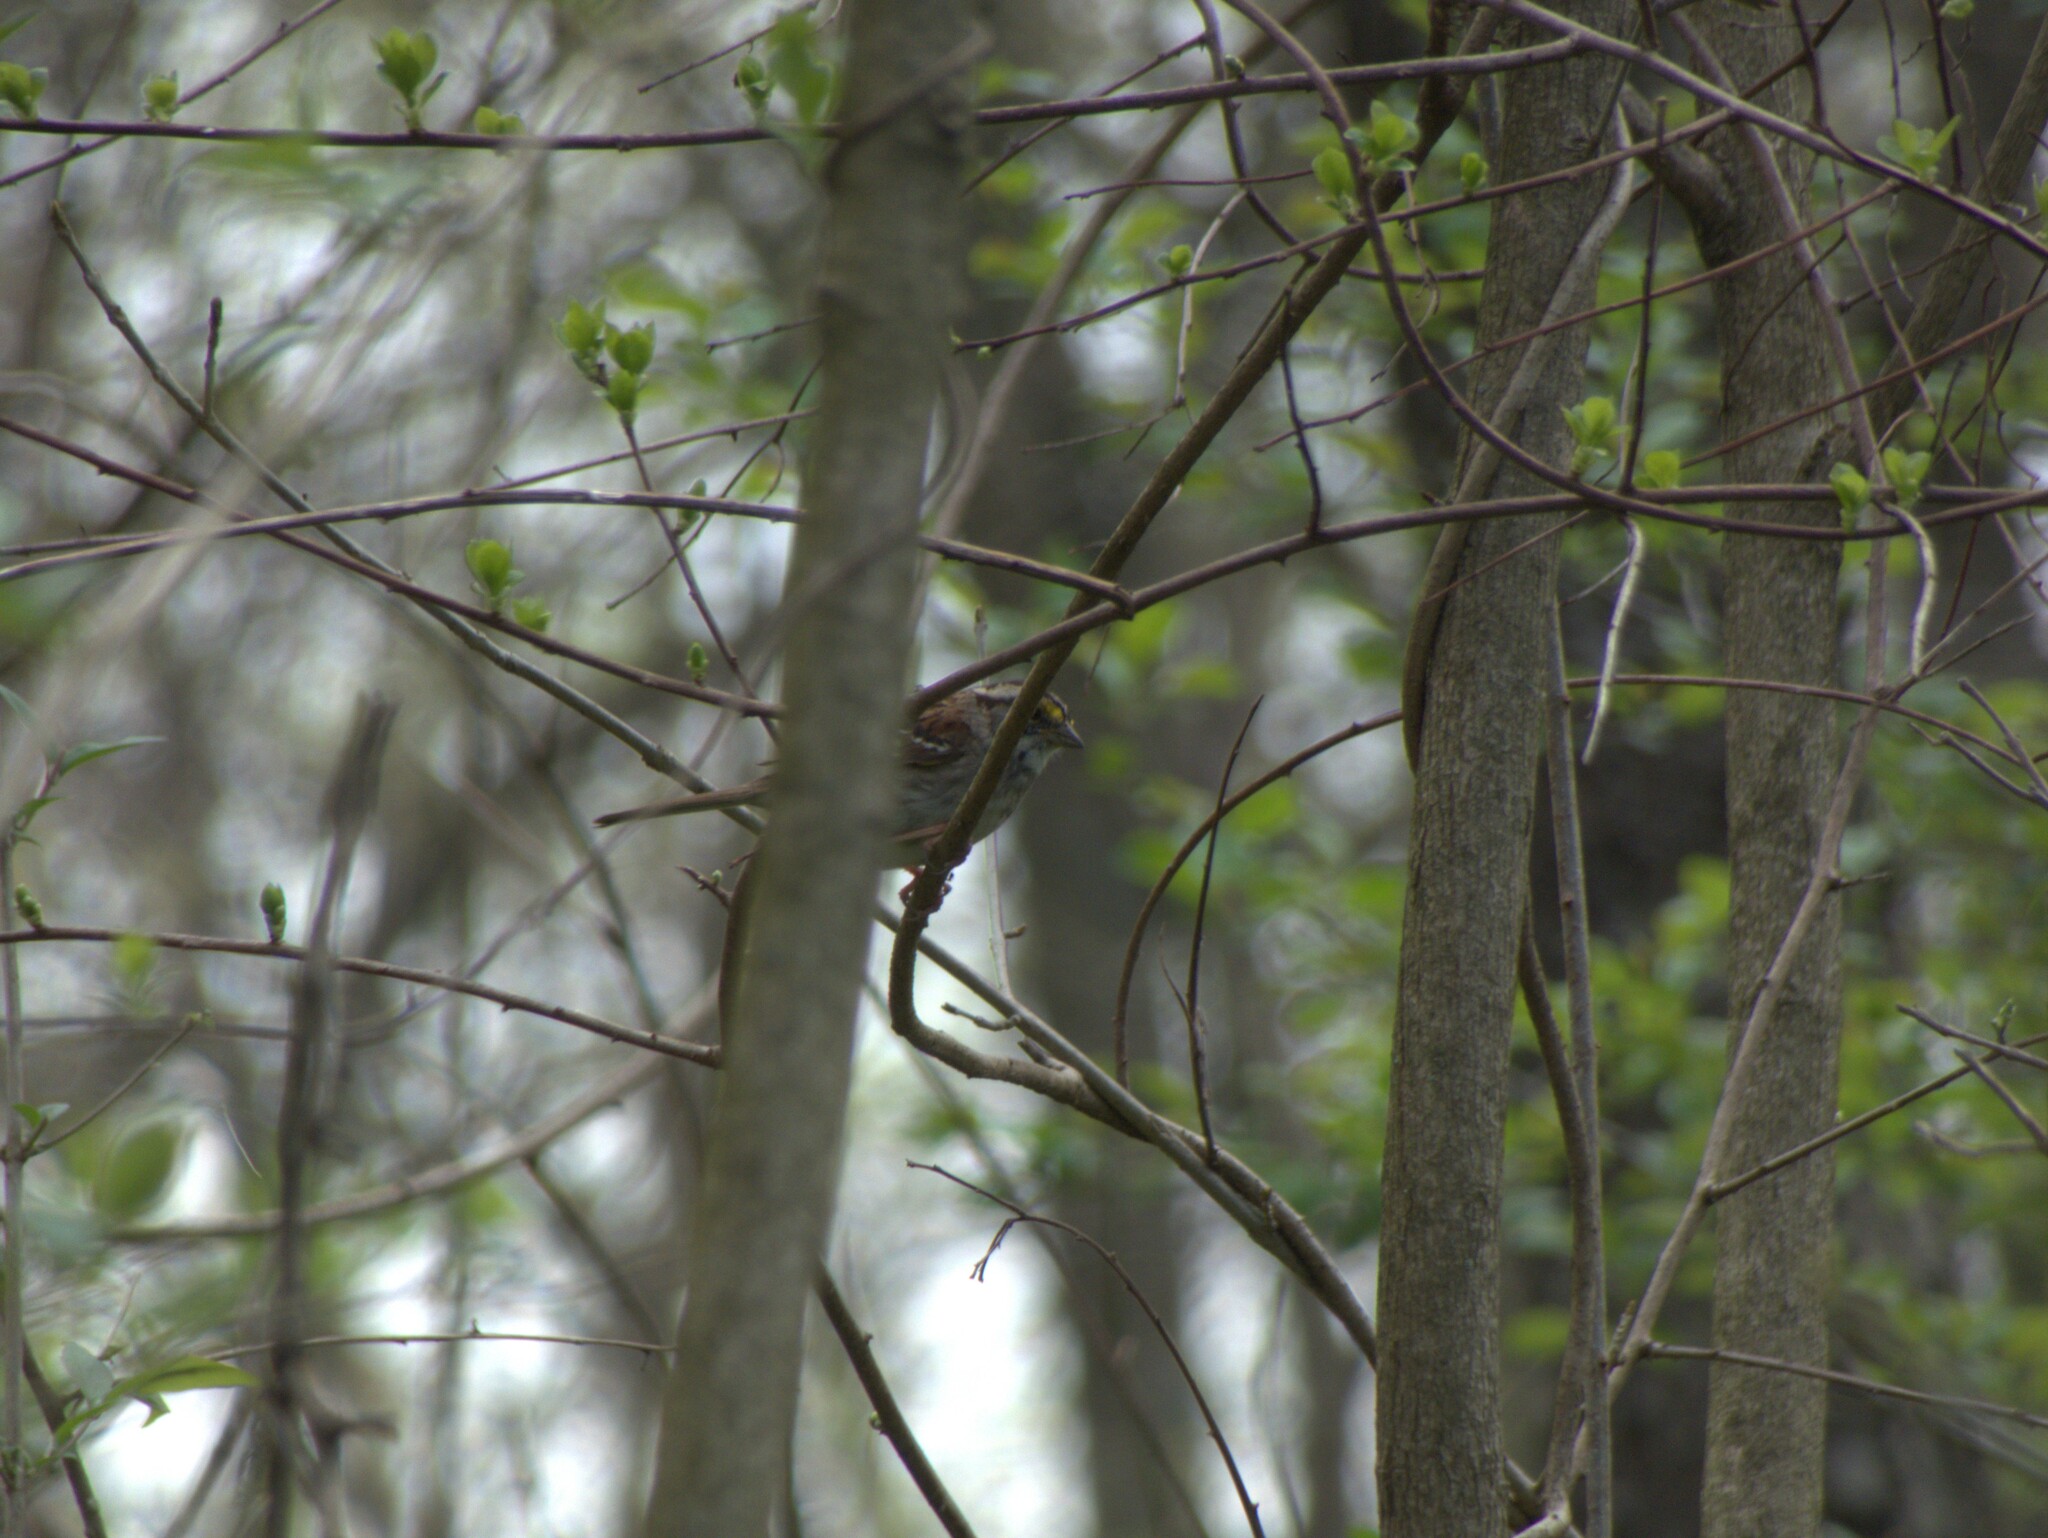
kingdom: Animalia
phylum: Chordata
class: Aves
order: Passeriformes
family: Passerellidae
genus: Zonotrichia
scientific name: Zonotrichia albicollis
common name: White-throated sparrow
